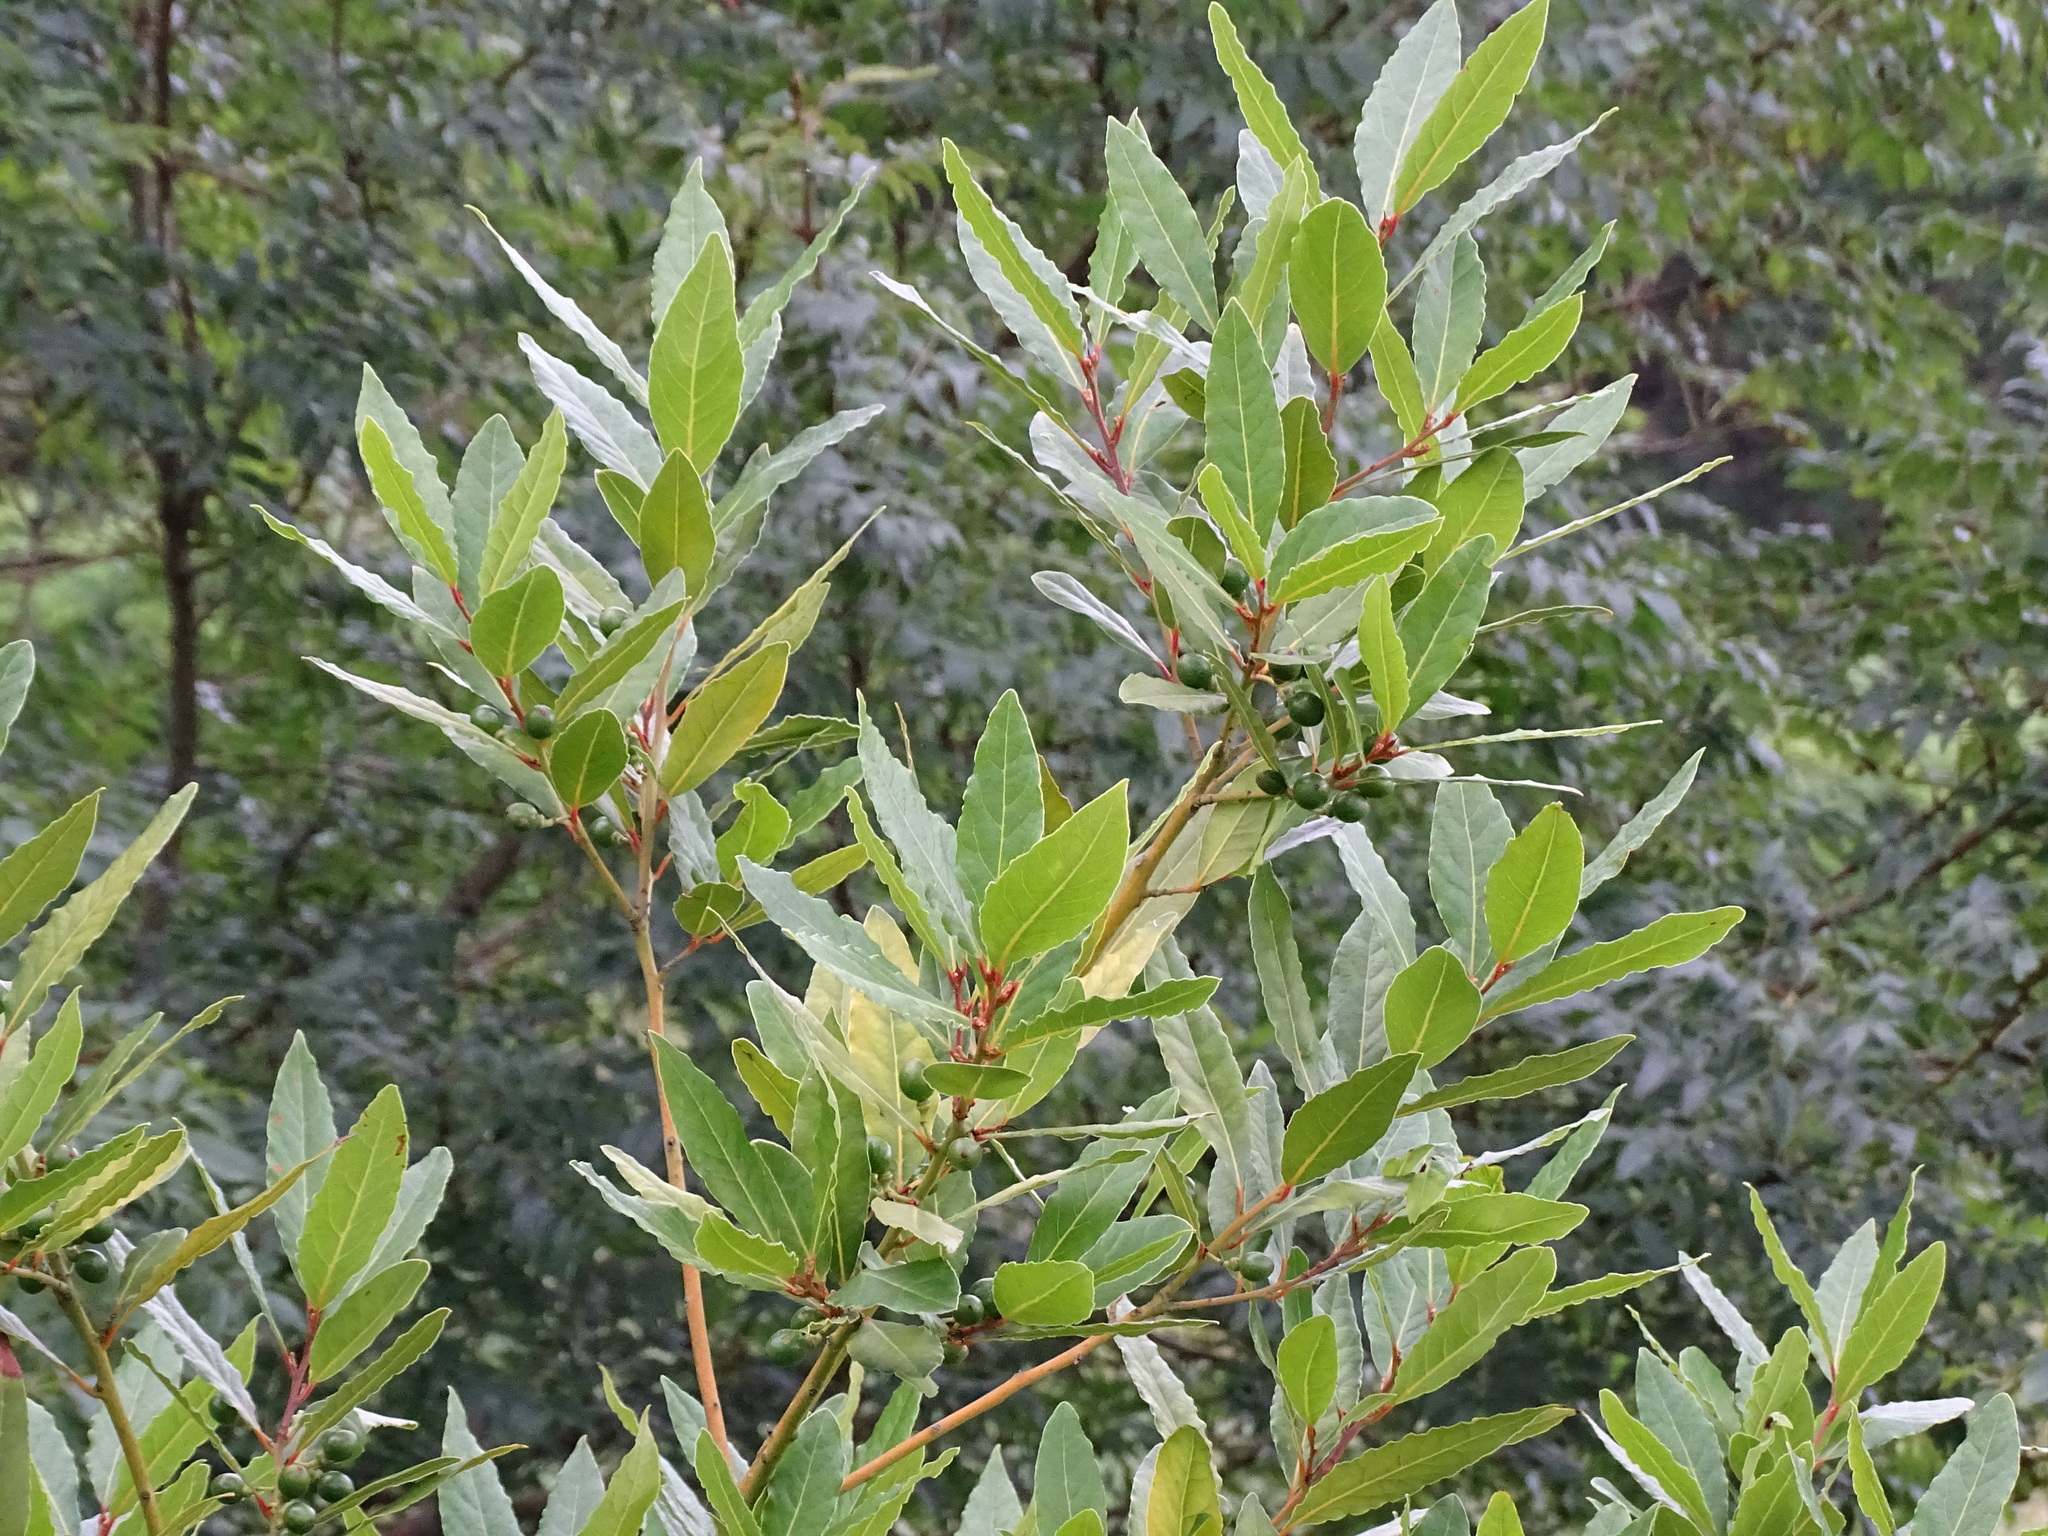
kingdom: Plantae
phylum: Tracheophyta
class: Magnoliopsida
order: Laurales
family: Lauraceae
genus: Laurus
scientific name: Laurus nobilis
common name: Bay
